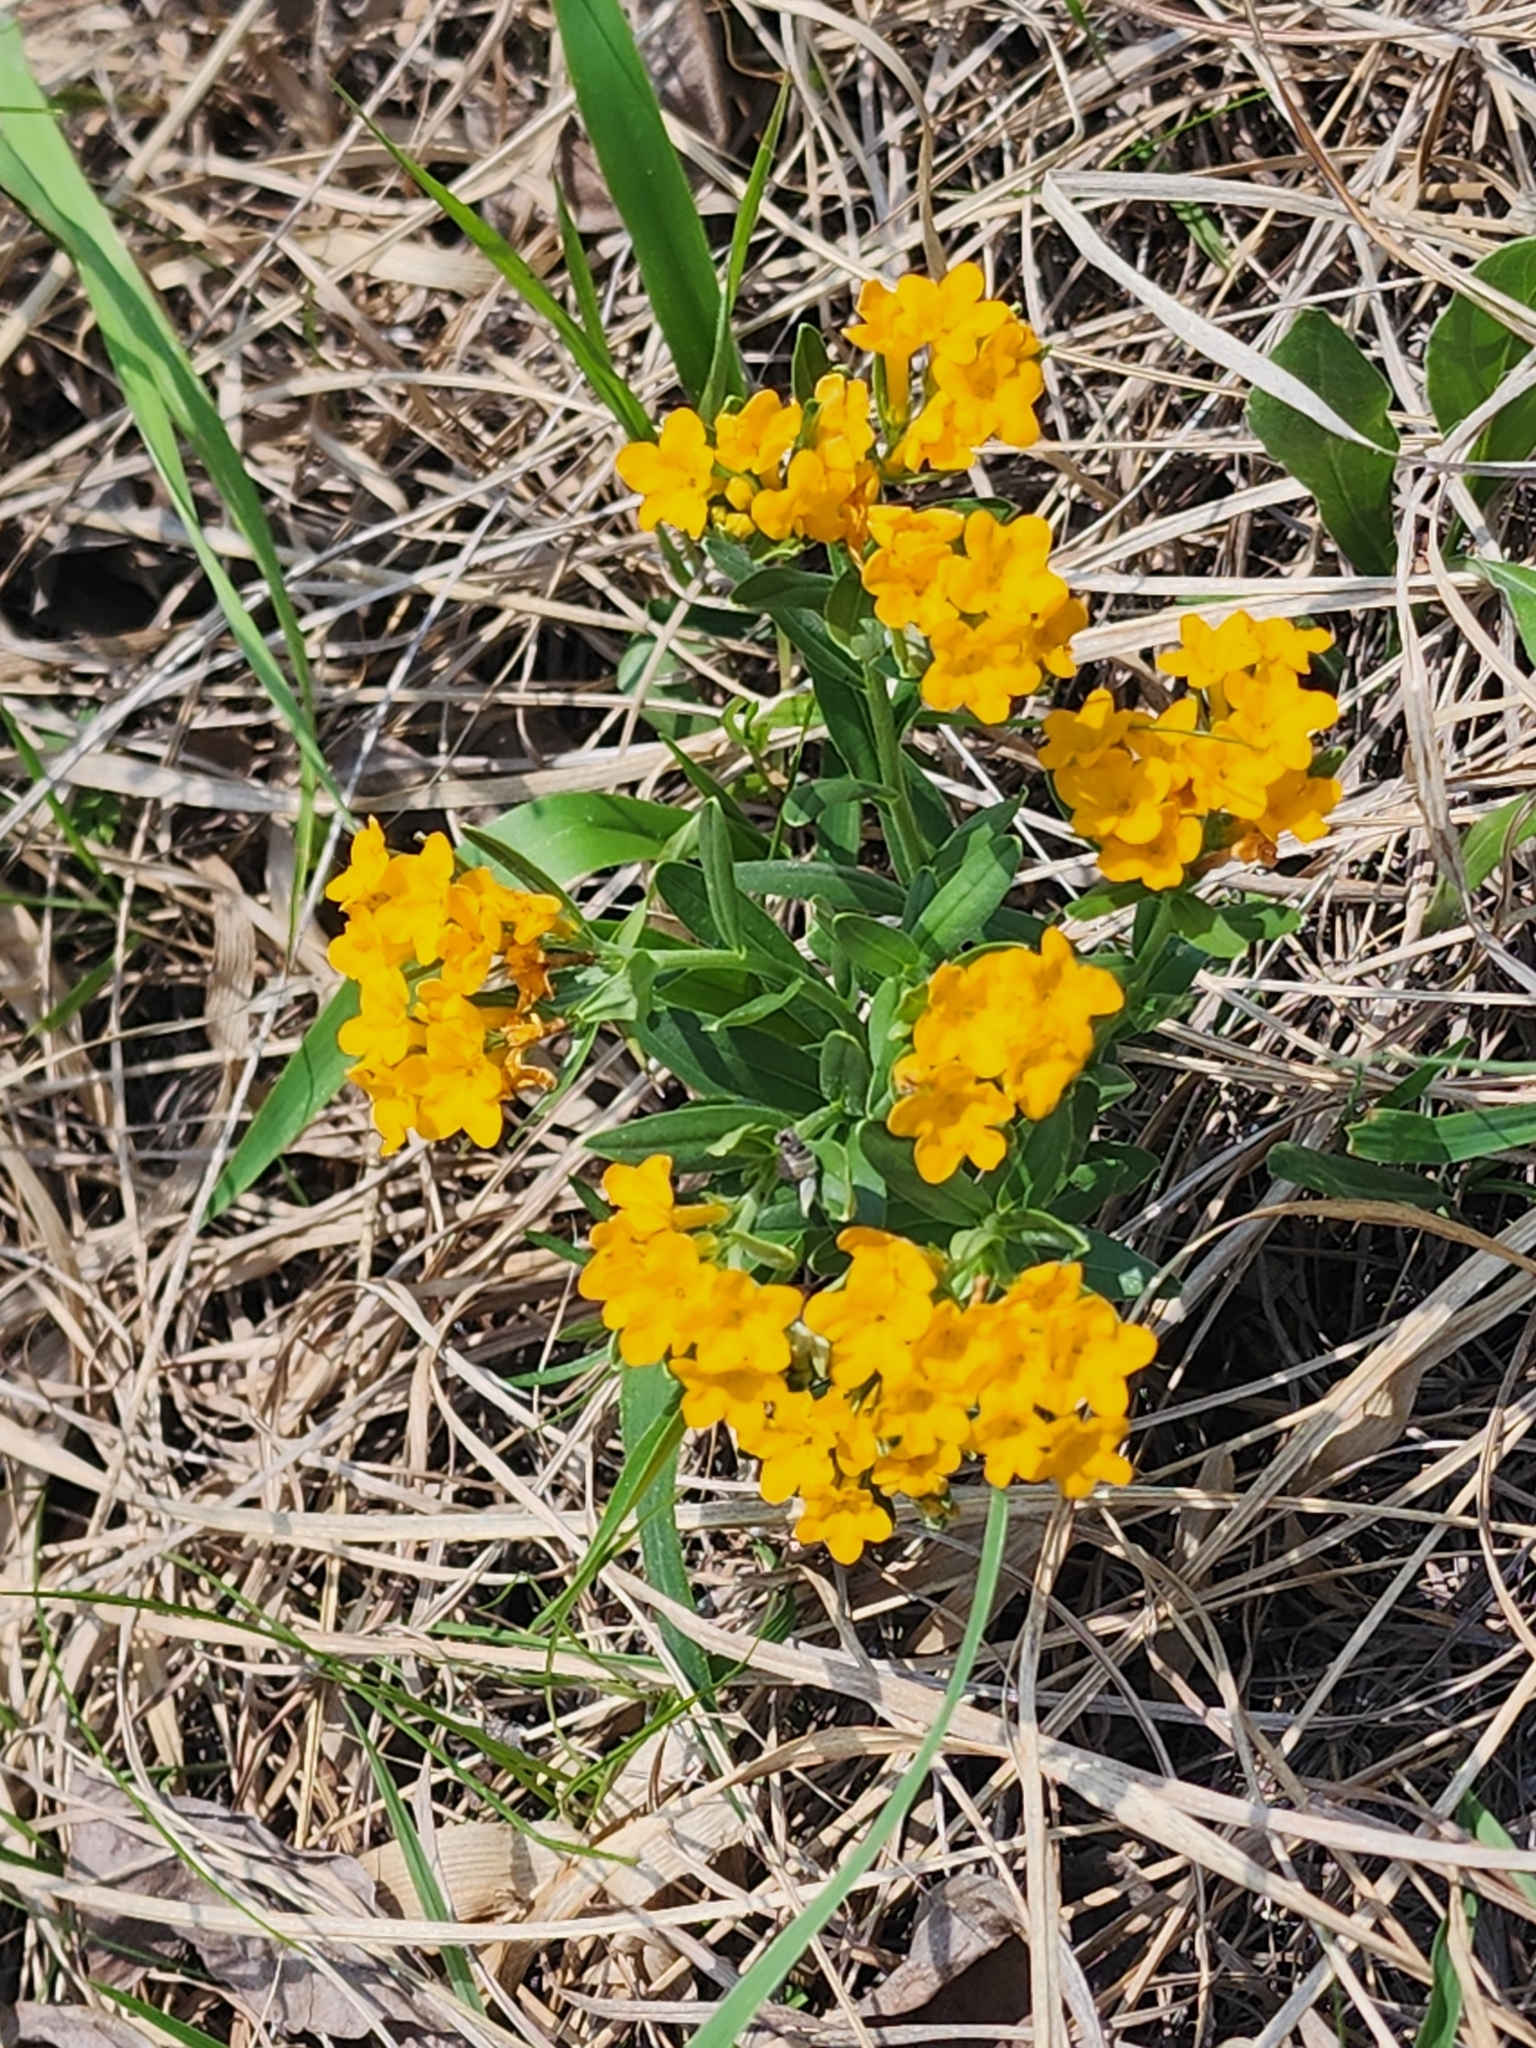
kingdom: Plantae
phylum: Tracheophyta
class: Magnoliopsida
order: Boraginales
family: Boraginaceae
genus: Lithospermum
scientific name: Lithospermum canescens
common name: Hoary puccoon
